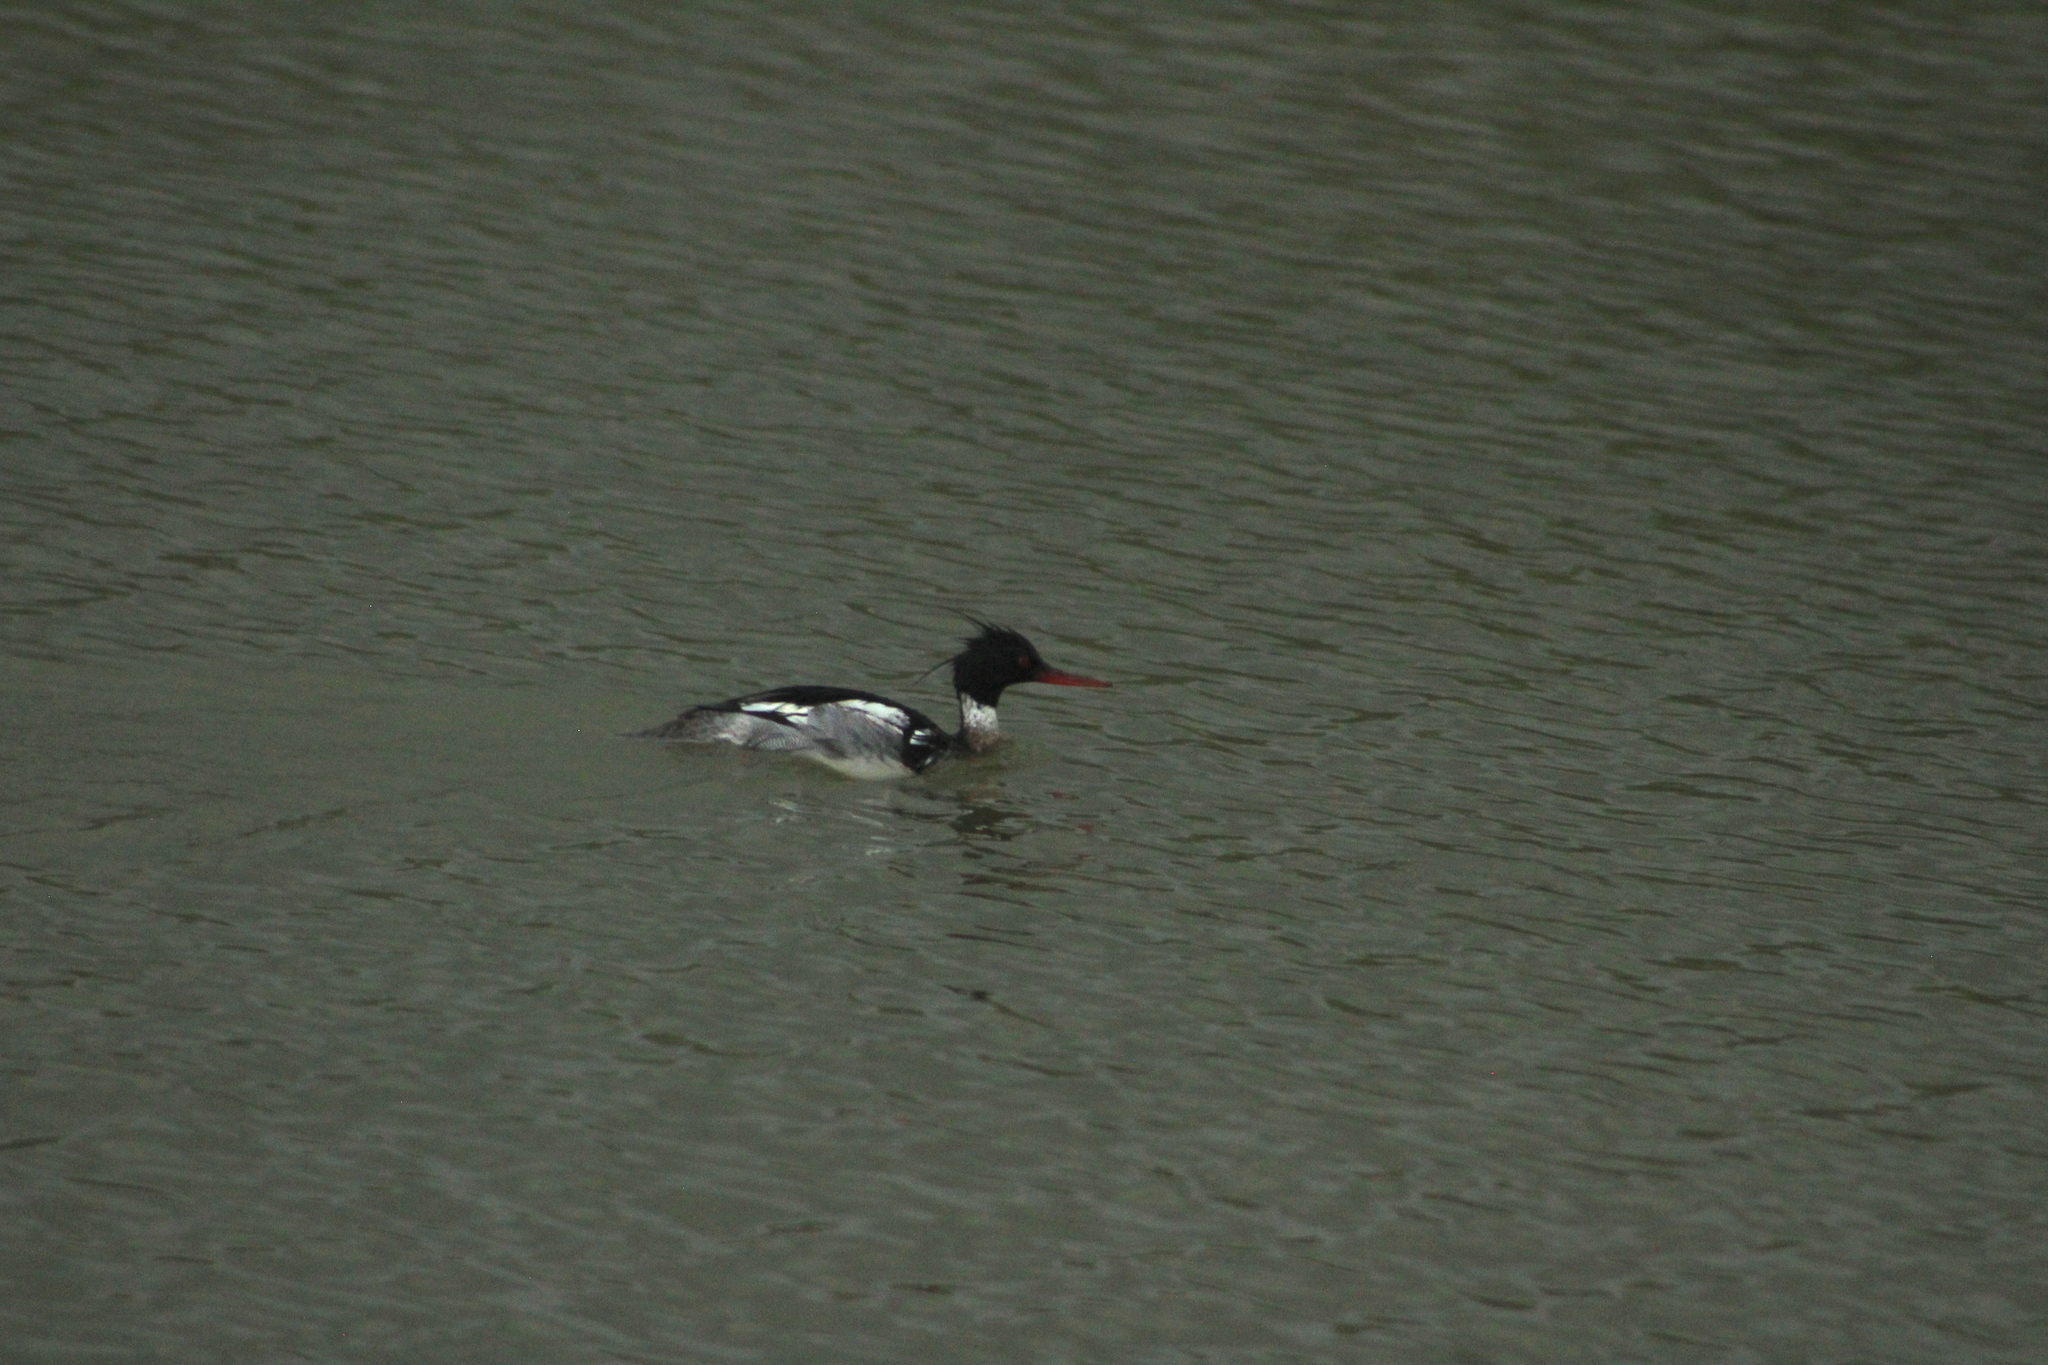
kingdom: Animalia
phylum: Chordata
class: Aves
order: Anseriformes
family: Anatidae
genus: Mergus
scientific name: Mergus serrator
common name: Red-breasted merganser
